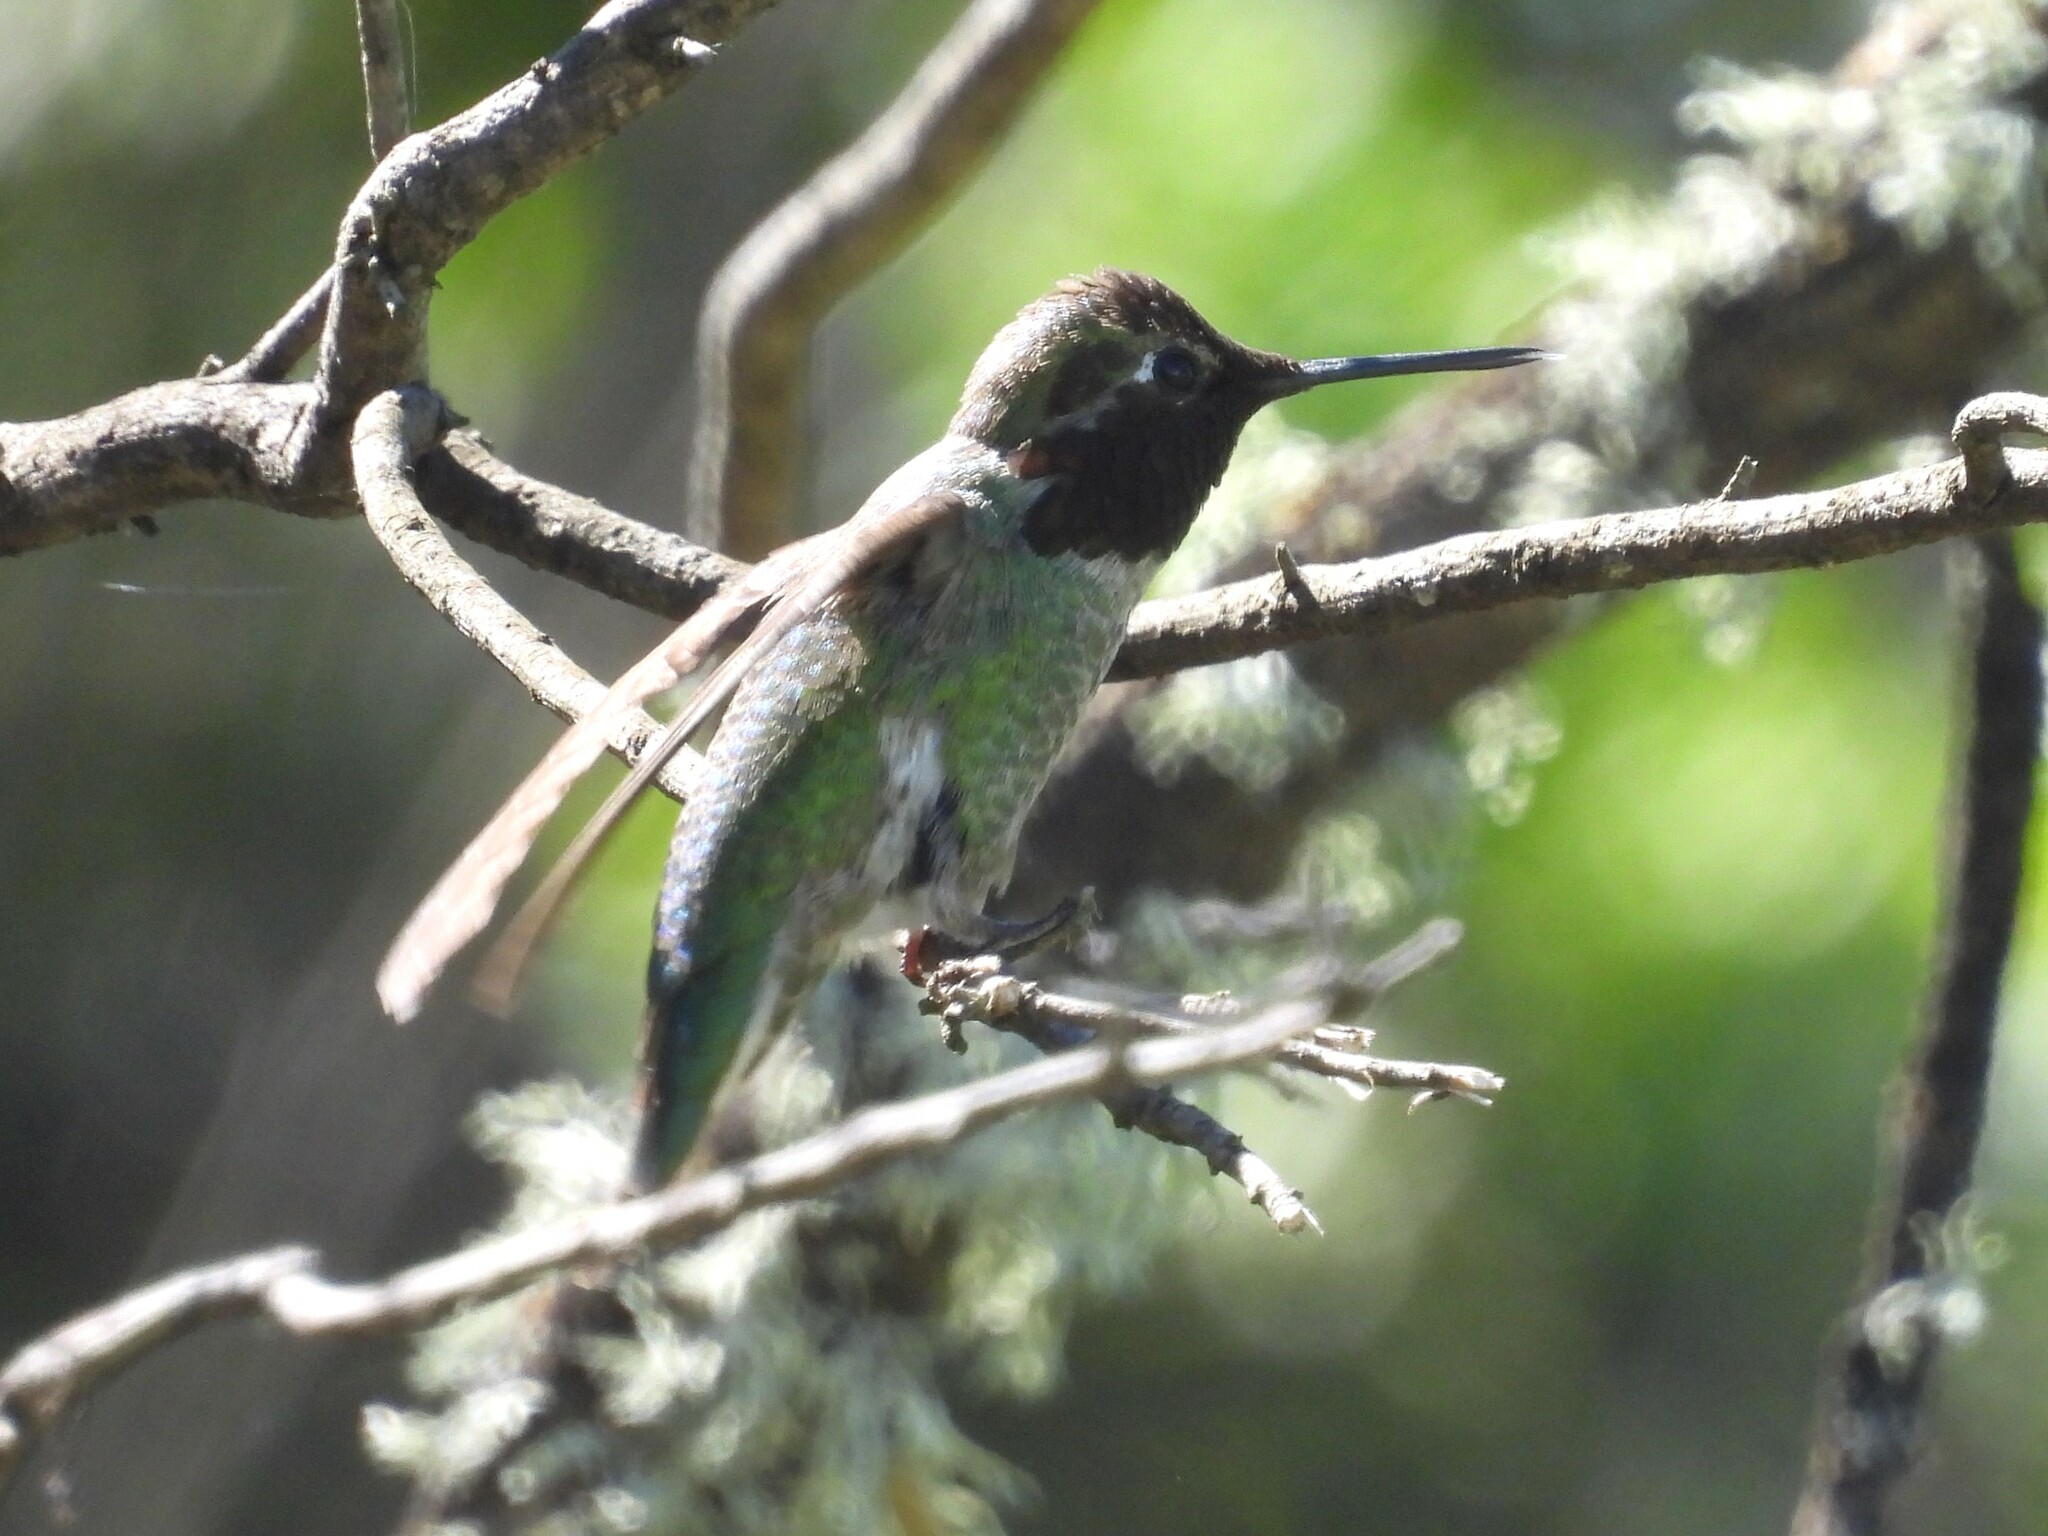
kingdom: Animalia
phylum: Chordata
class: Aves
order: Apodiformes
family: Trochilidae
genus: Calypte
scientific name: Calypte anna
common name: Anna's hummingbird
